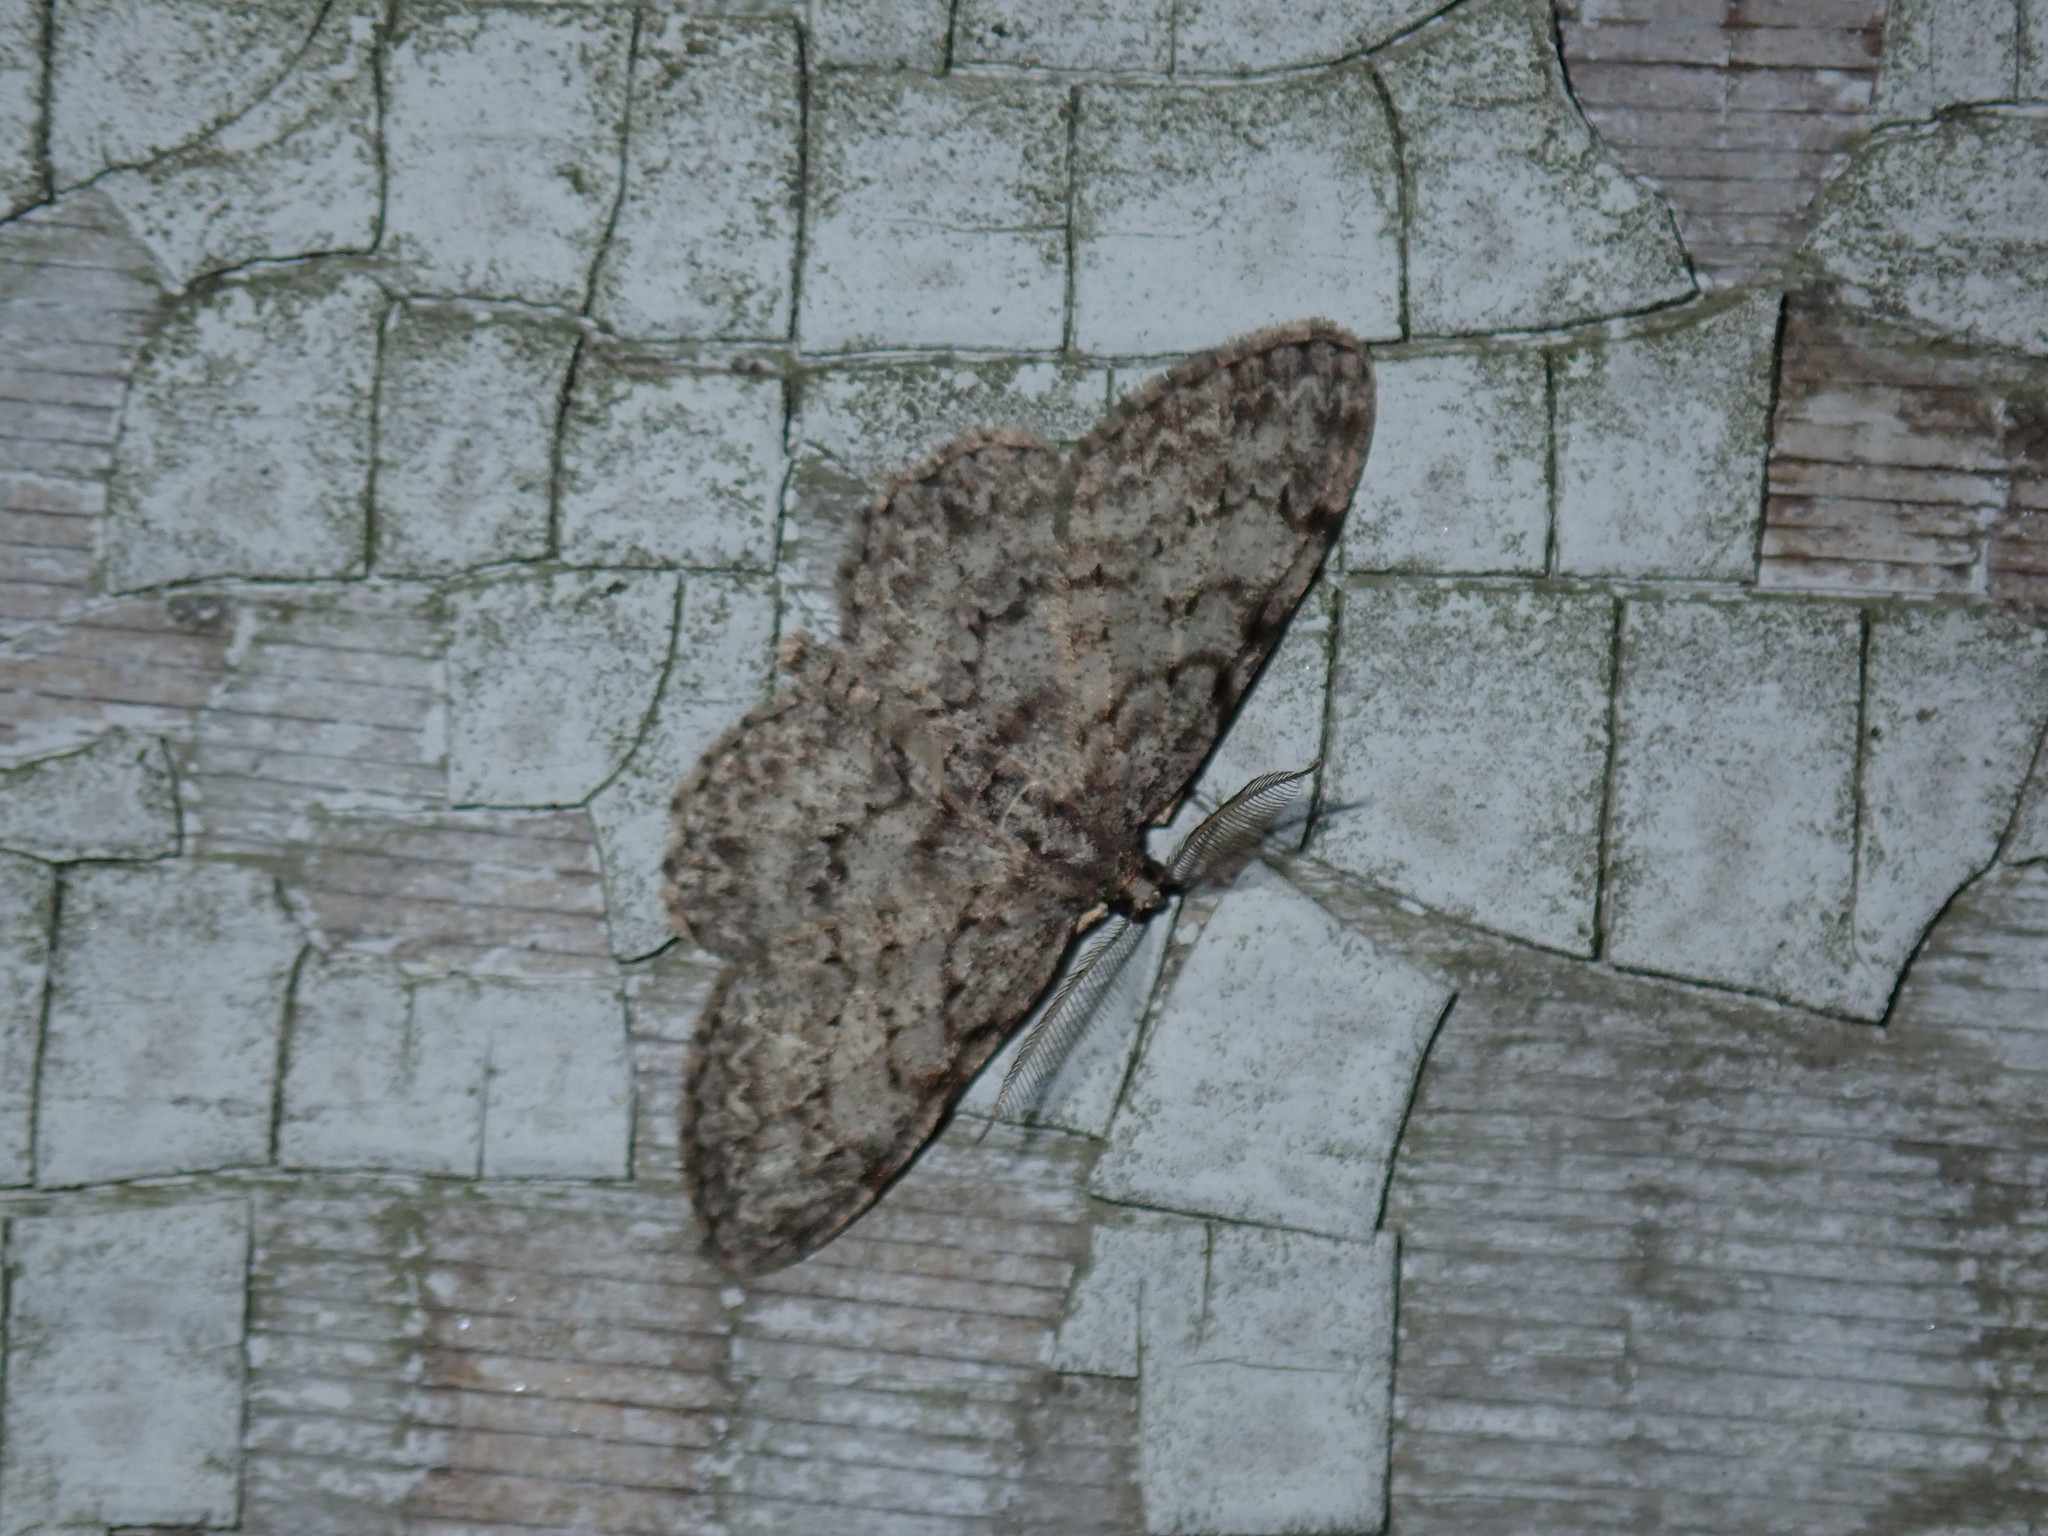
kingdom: Animalia
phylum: Arthropoda
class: Insecta
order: Lepidoptera
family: Geometridae
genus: Protoboarmia
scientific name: Protoboarmia porcelaria
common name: Porcelain gray
